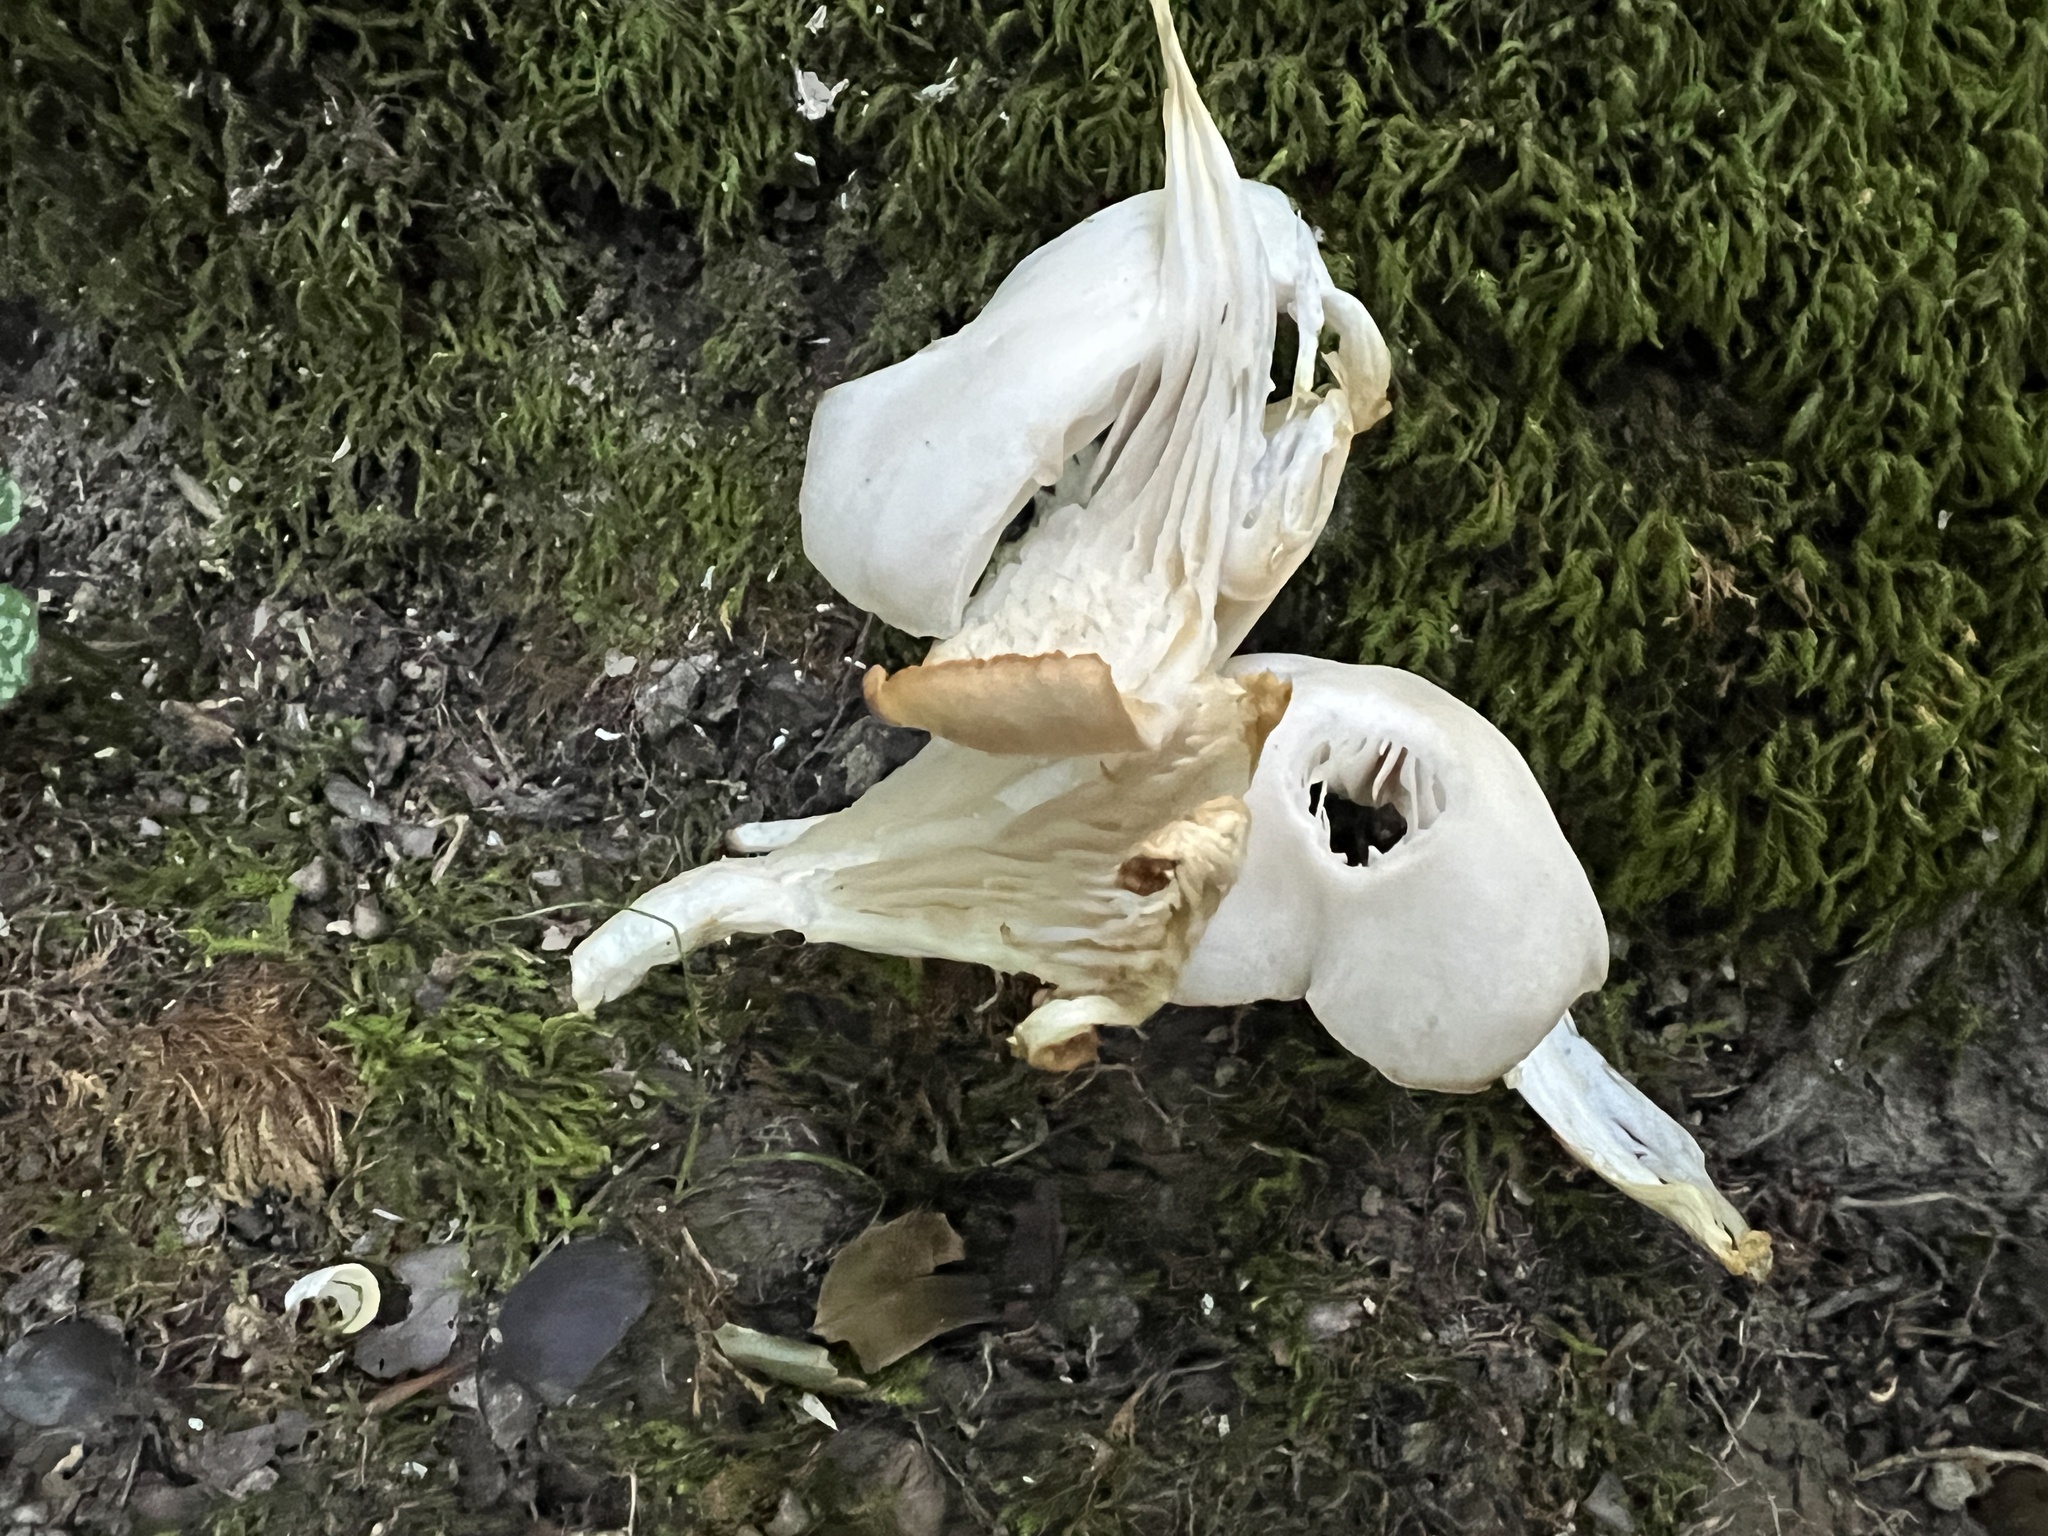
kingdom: Fungi
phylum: Basidiomycota
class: Agaricomycetes
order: Agaricales
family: Pleurotaceae
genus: Pleurotus
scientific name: Pleurotus pulmonarius
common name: Pale oyster
